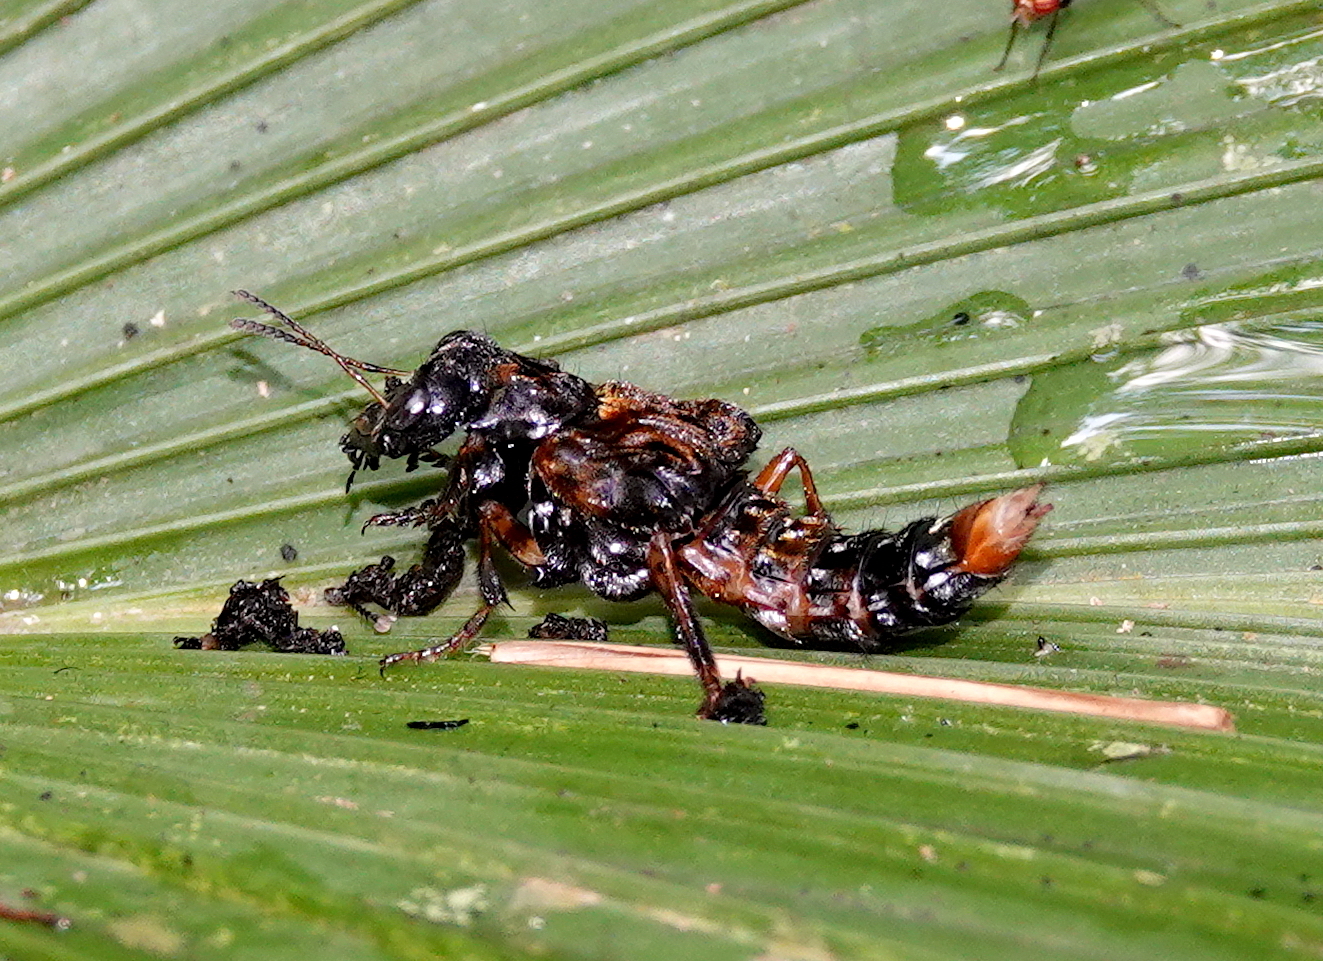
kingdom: Animalia
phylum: Arthropoda
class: Insecta
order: Coleoptera
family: Staphylinidae
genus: Leistotrophus
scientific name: Leistotrophus versicolor
